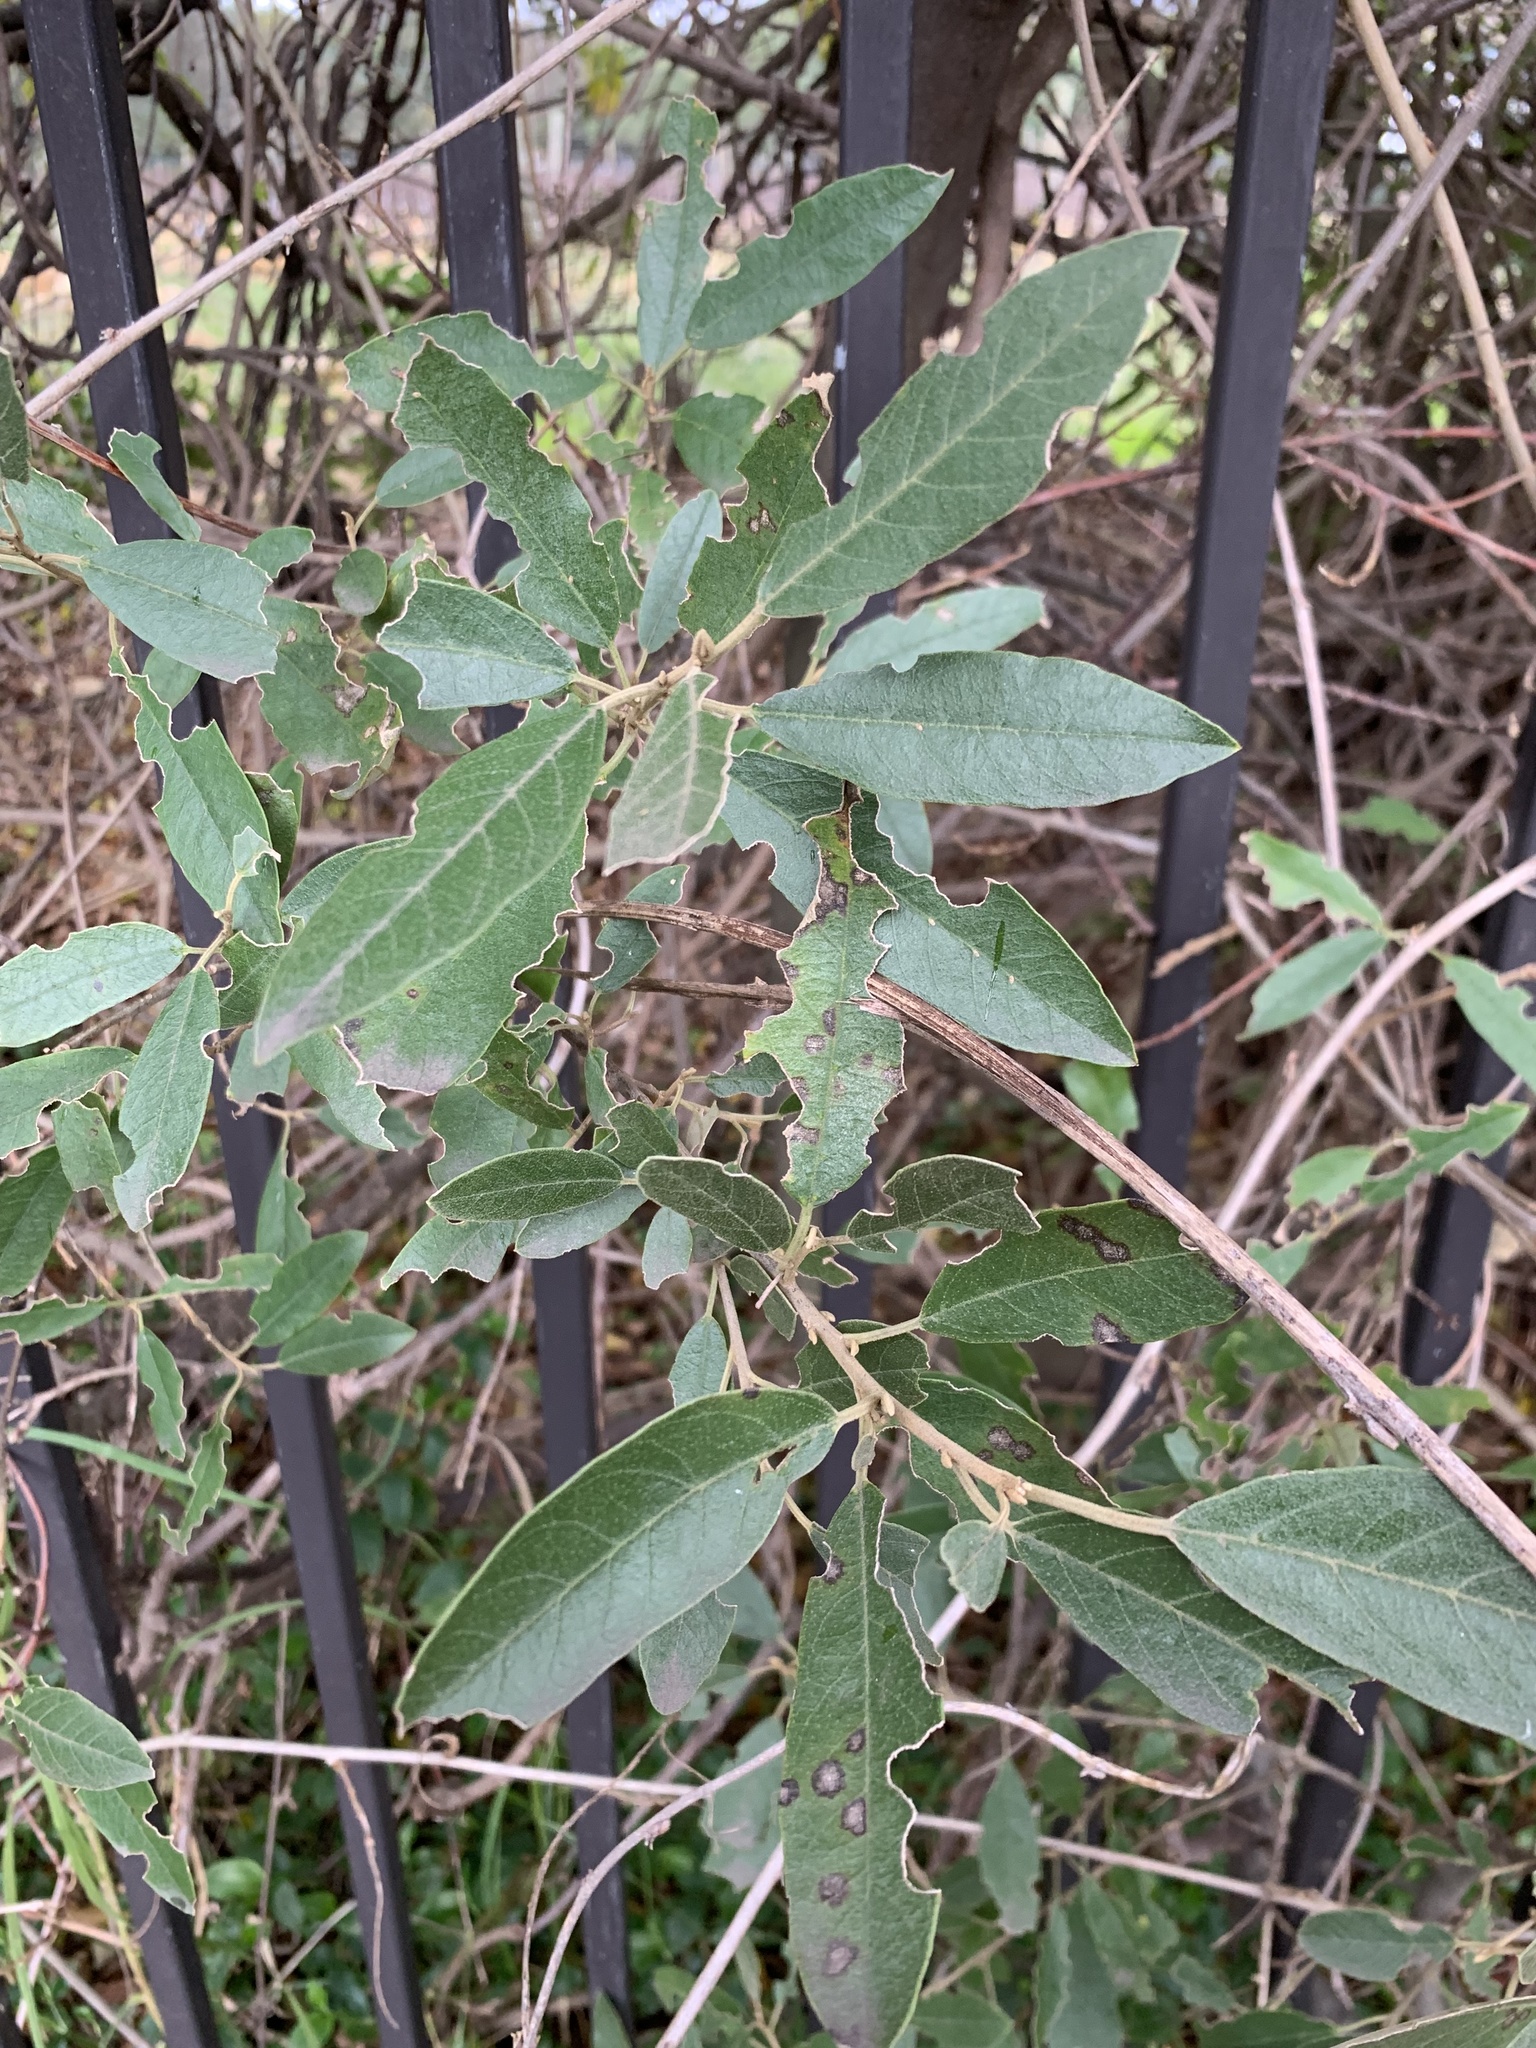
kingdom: Plantae
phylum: Tracheophyta
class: Magnoliopsida
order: Malpighiales
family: Achariaceae
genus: Kiggelaria
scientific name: Kiggelaria africana
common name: Wild peach
